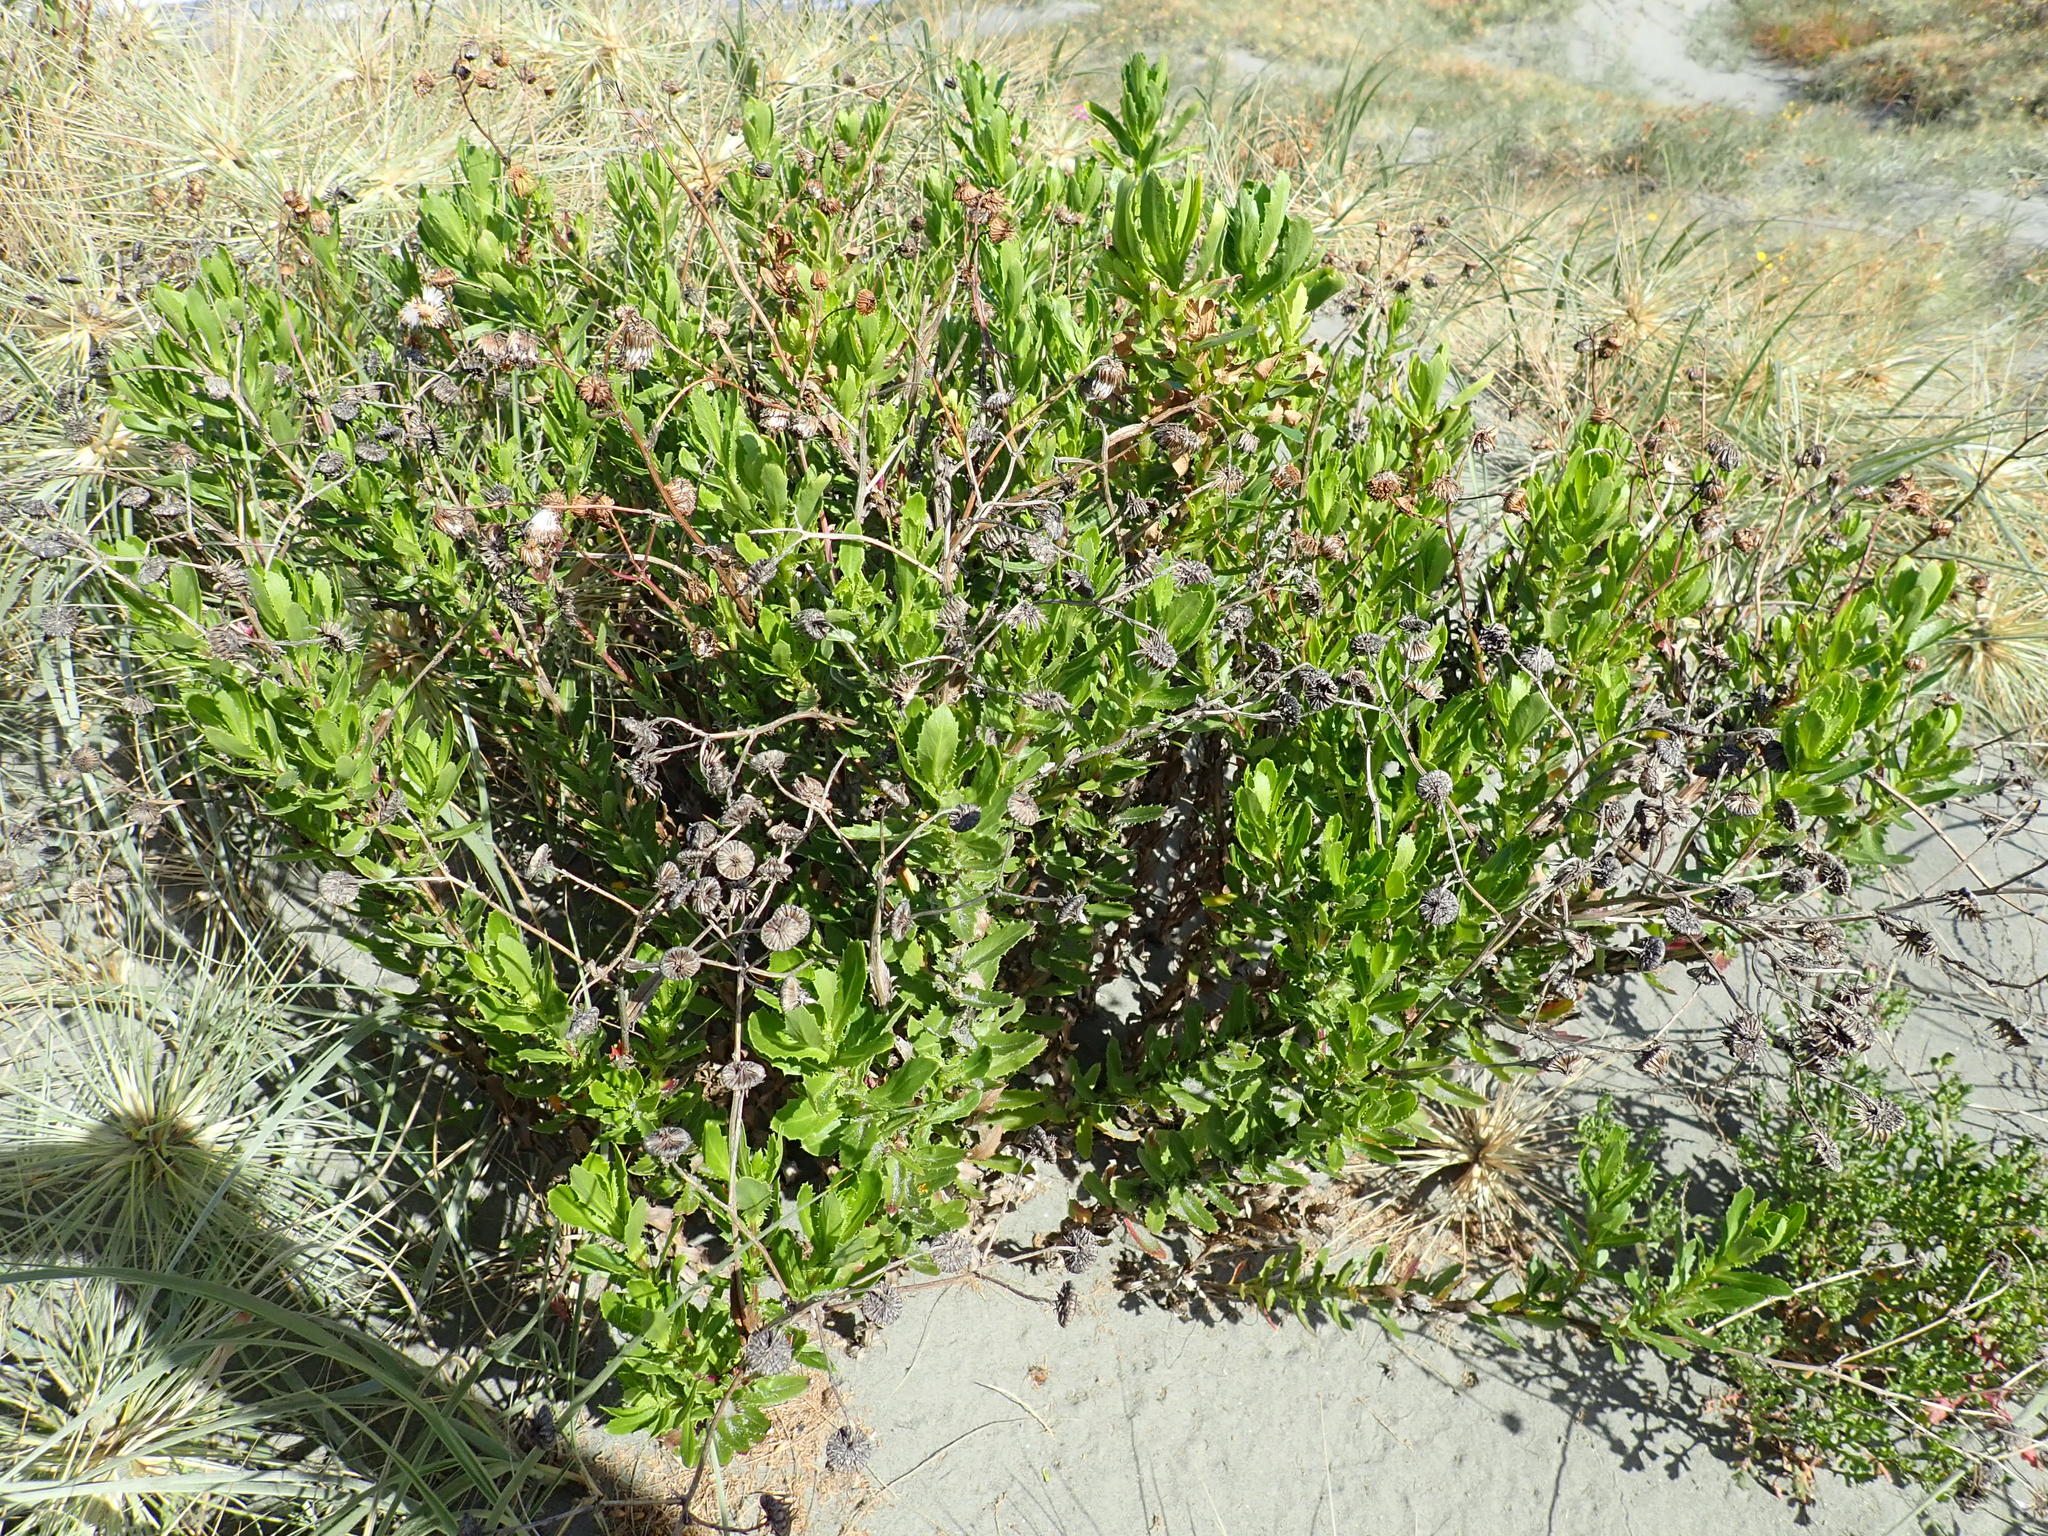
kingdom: Plantae
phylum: Tracheophyta
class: Magnoliopsida
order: Asterales
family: Asteraceae
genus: Senecio
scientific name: Senecio glastifolius
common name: Woad-leaved ragwort
